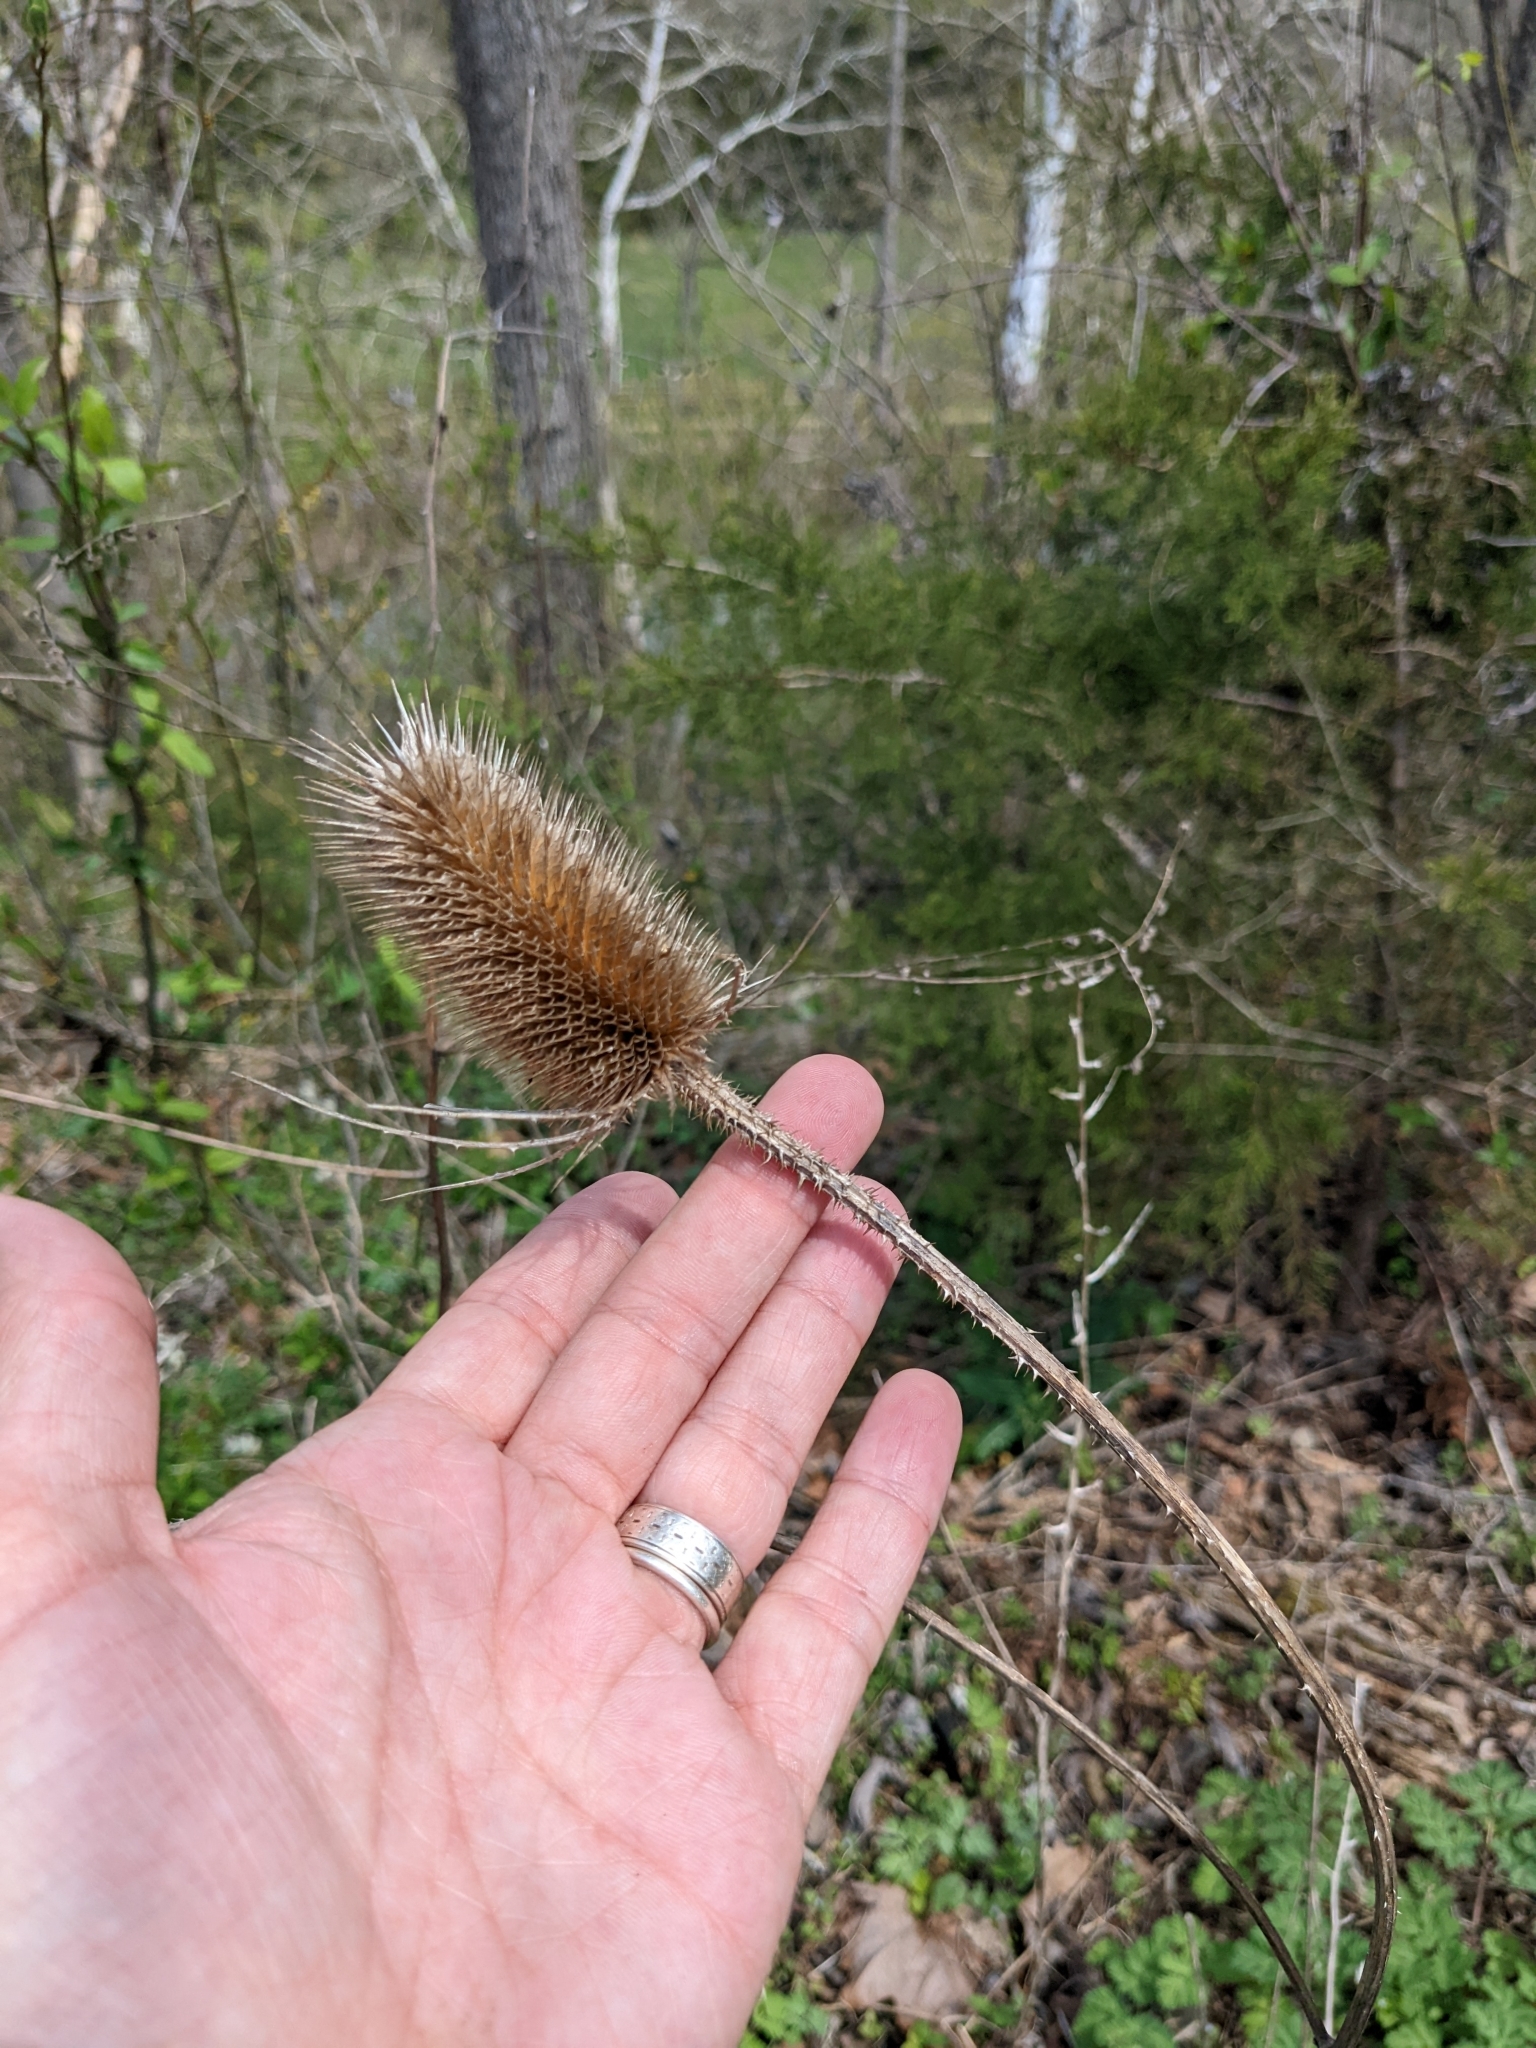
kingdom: Plantae
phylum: Tracheophyta
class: Magnoliopsida
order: Dipsacales
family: Caprifoliaceae
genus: Dipsacus
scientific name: Dipsacus fullonum
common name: Teasel
